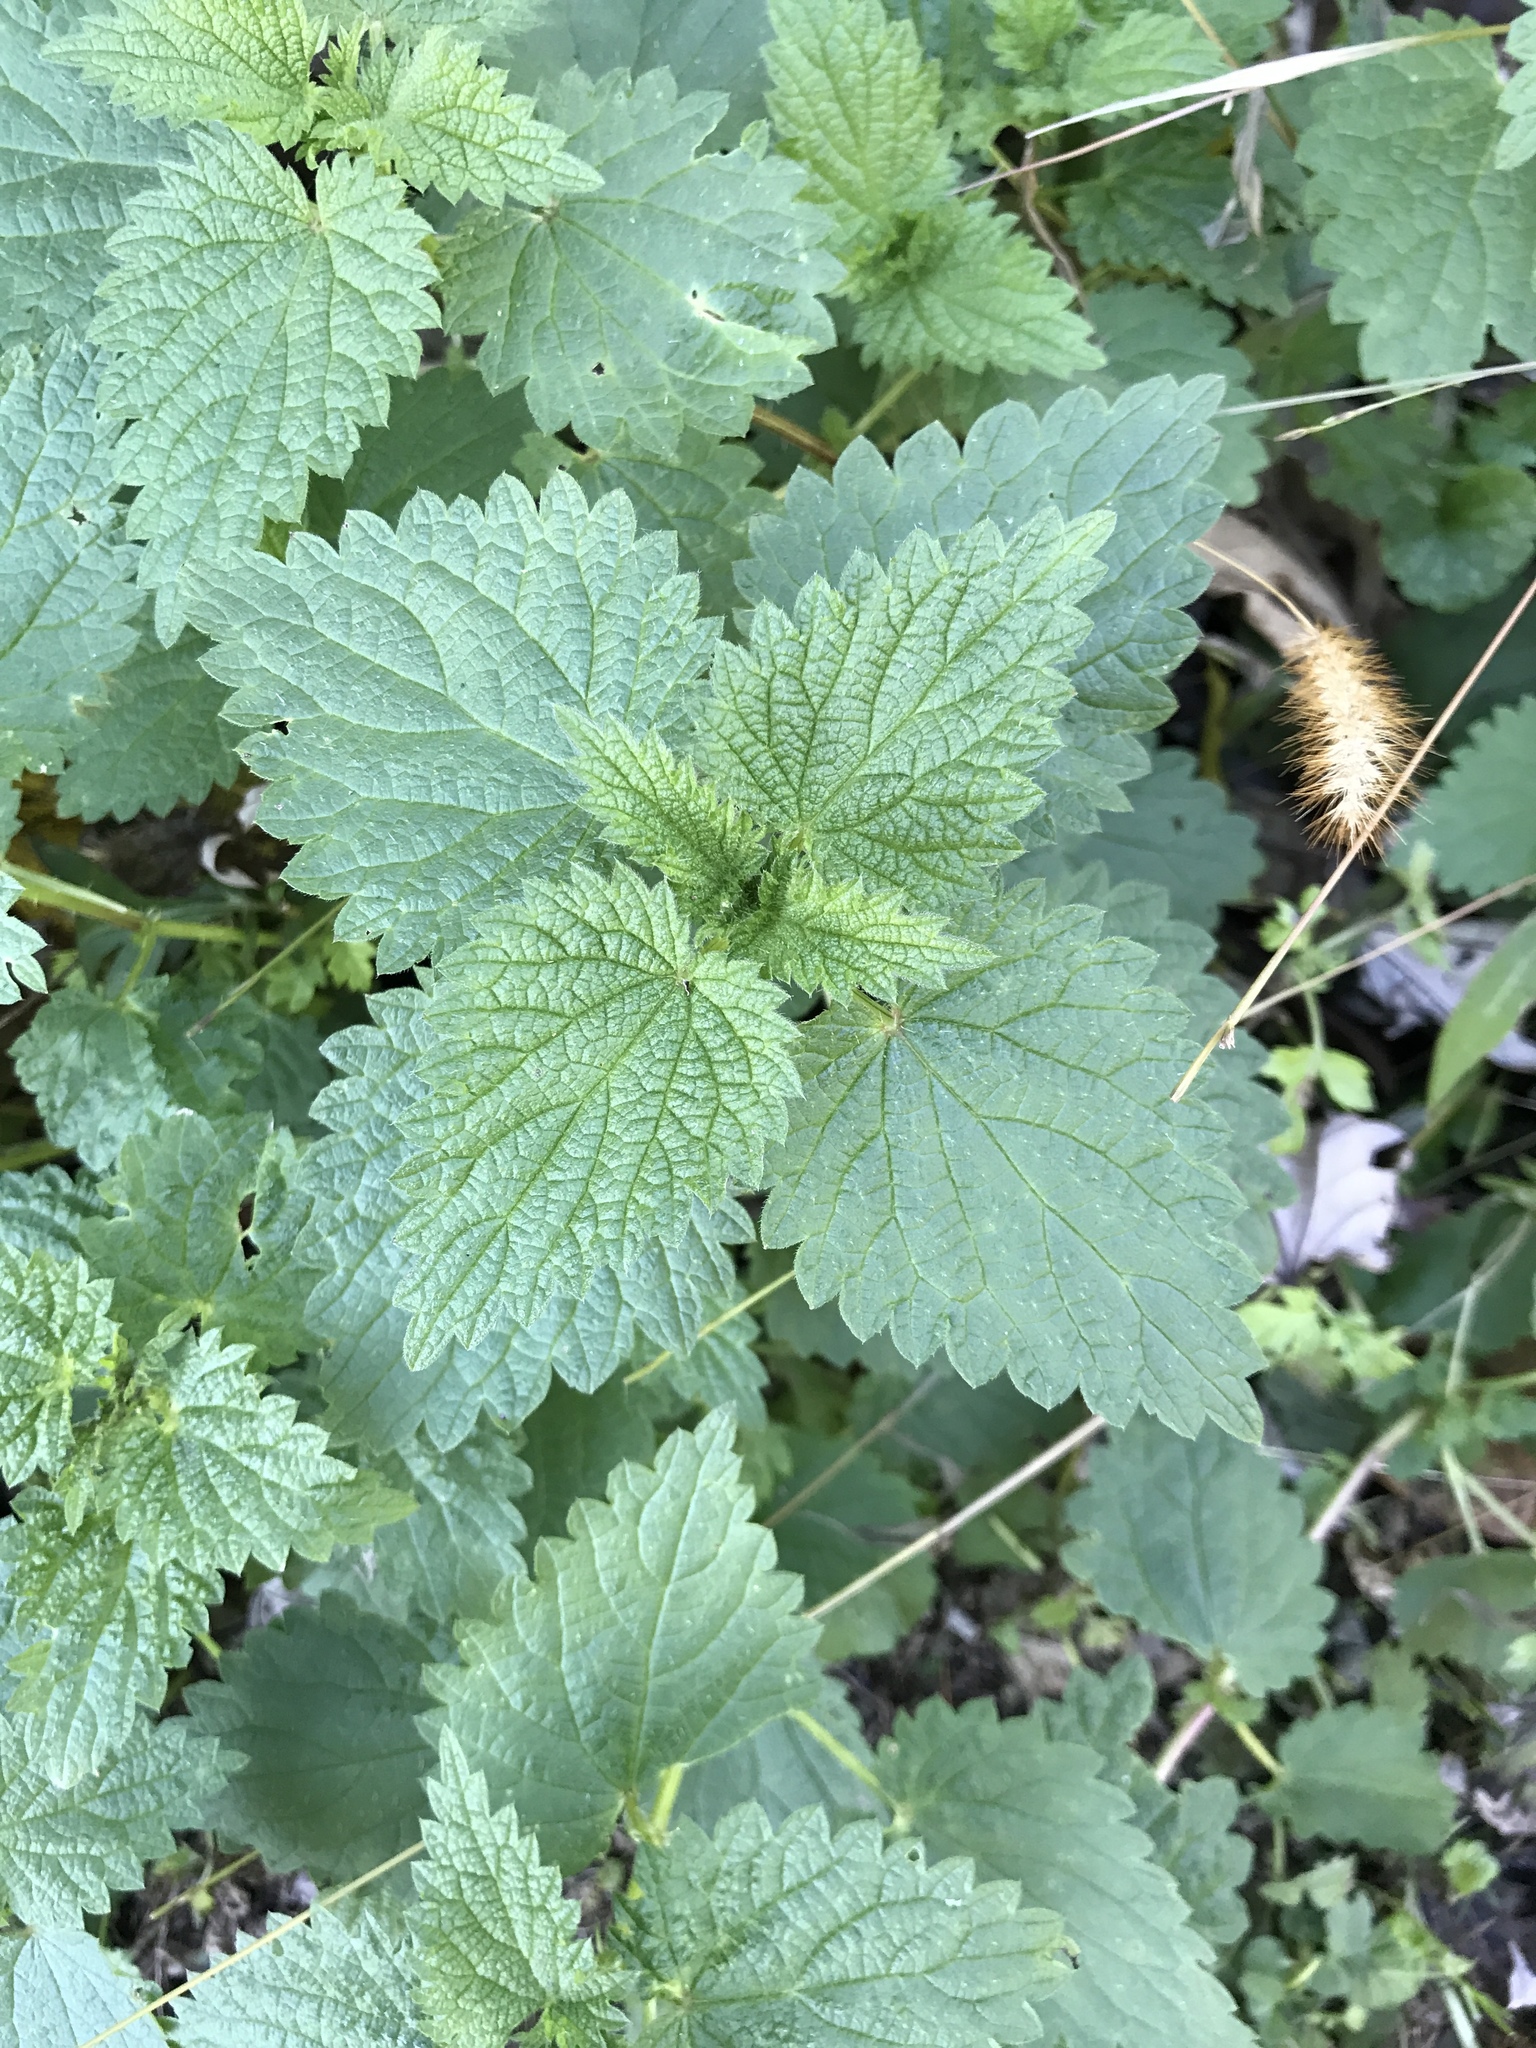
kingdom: Plantae
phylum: Tracheophyta
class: Magnoliopsida
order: Rosales
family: Urticaceae
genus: Urtica
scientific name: Urtica dioica
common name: Common nettle
